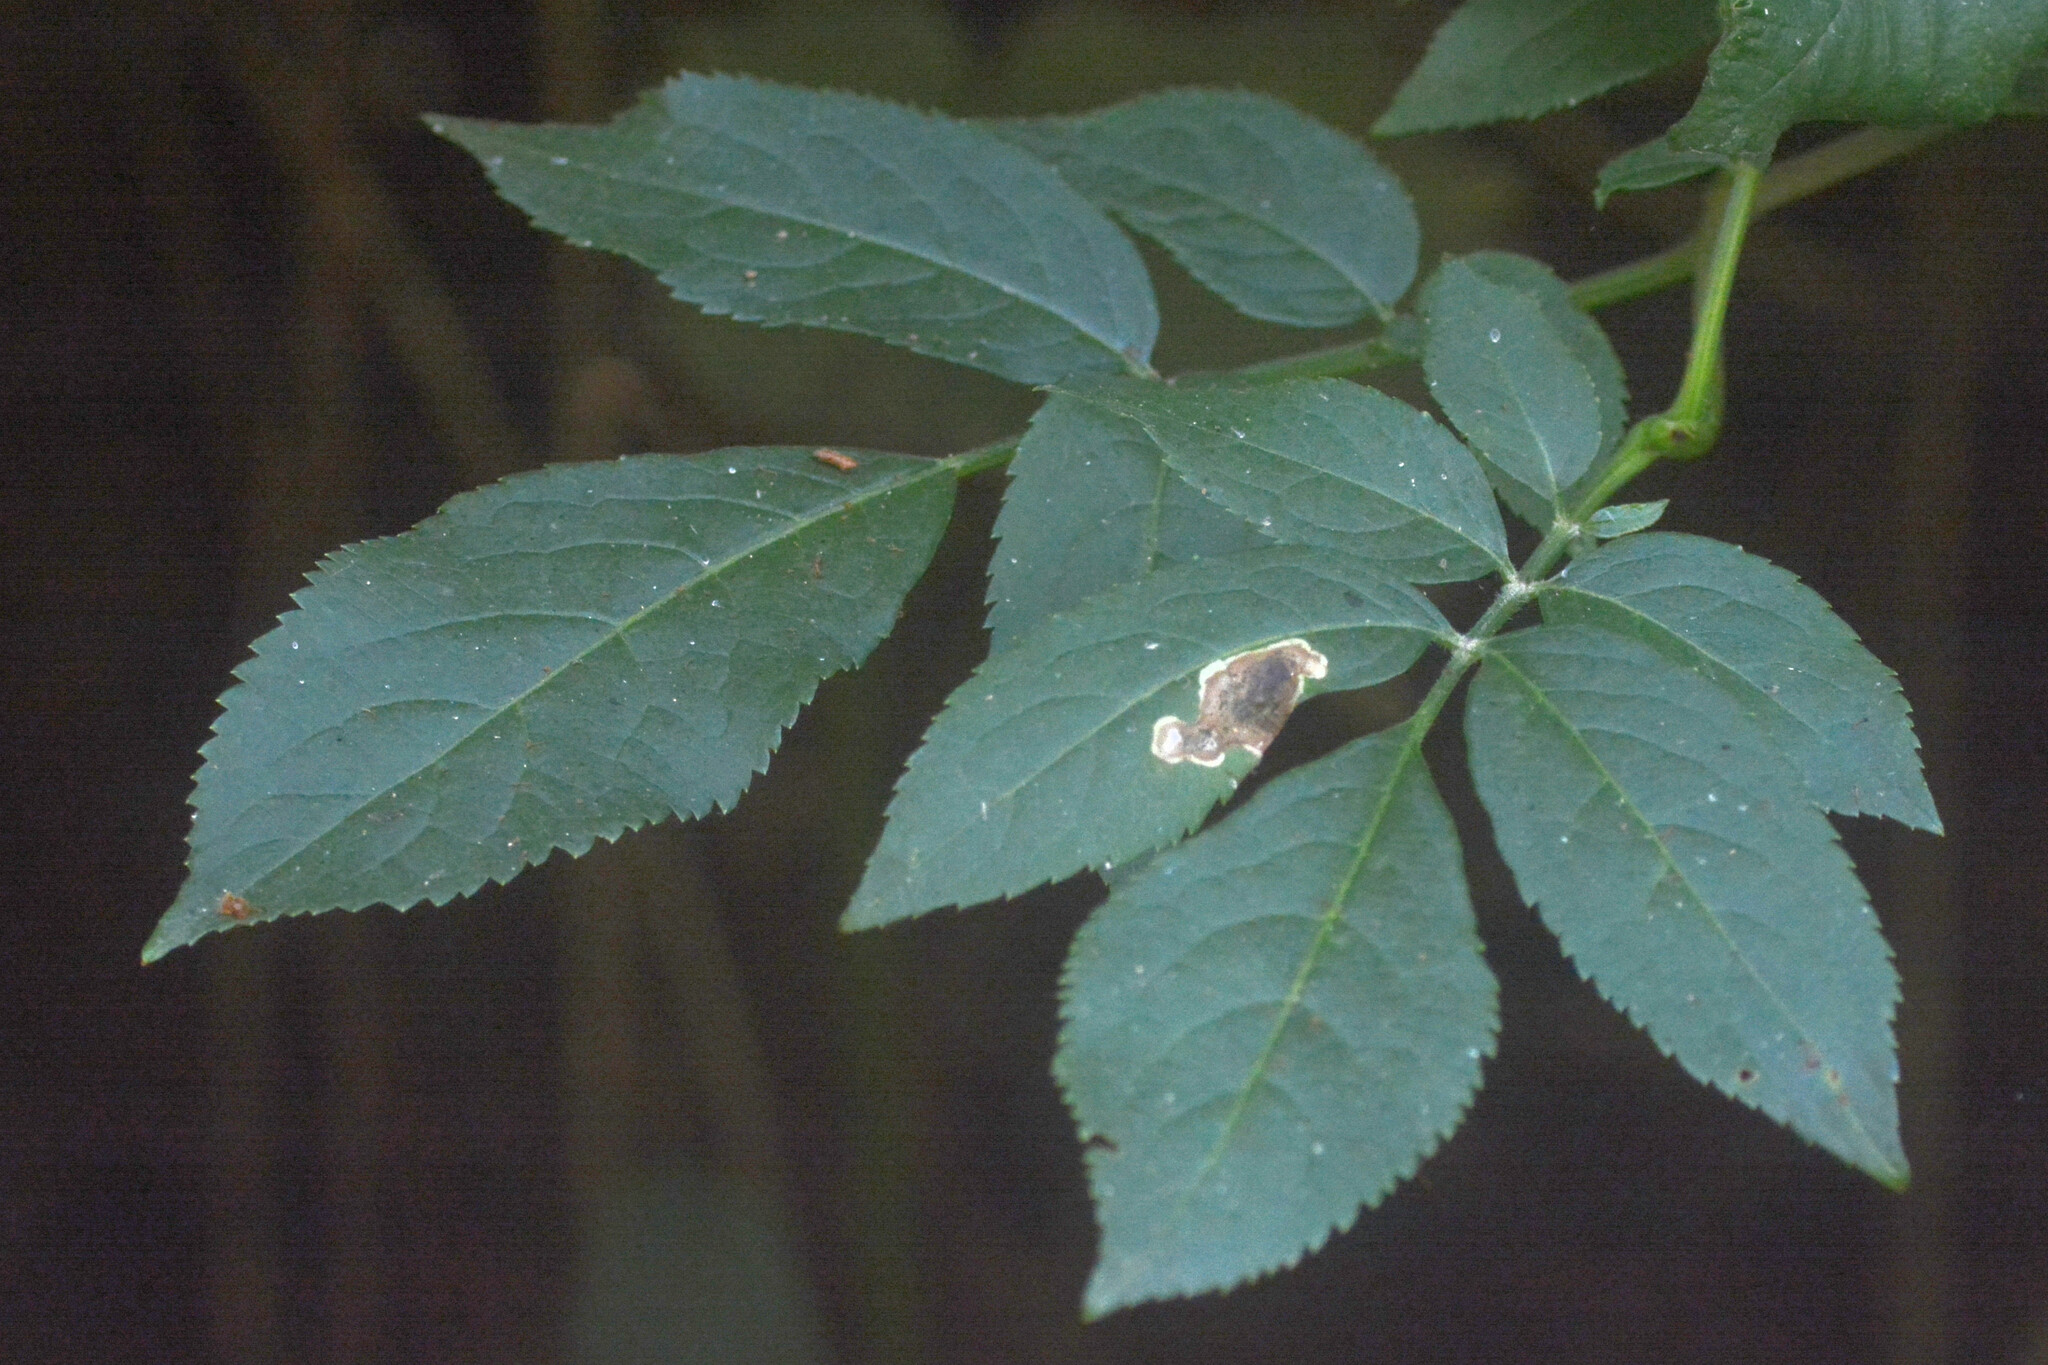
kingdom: Animalia
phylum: Arthropoda
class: Insecta
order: Diptera
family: Agromyzidae
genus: Liriomyza
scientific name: Liriomyza amoena
